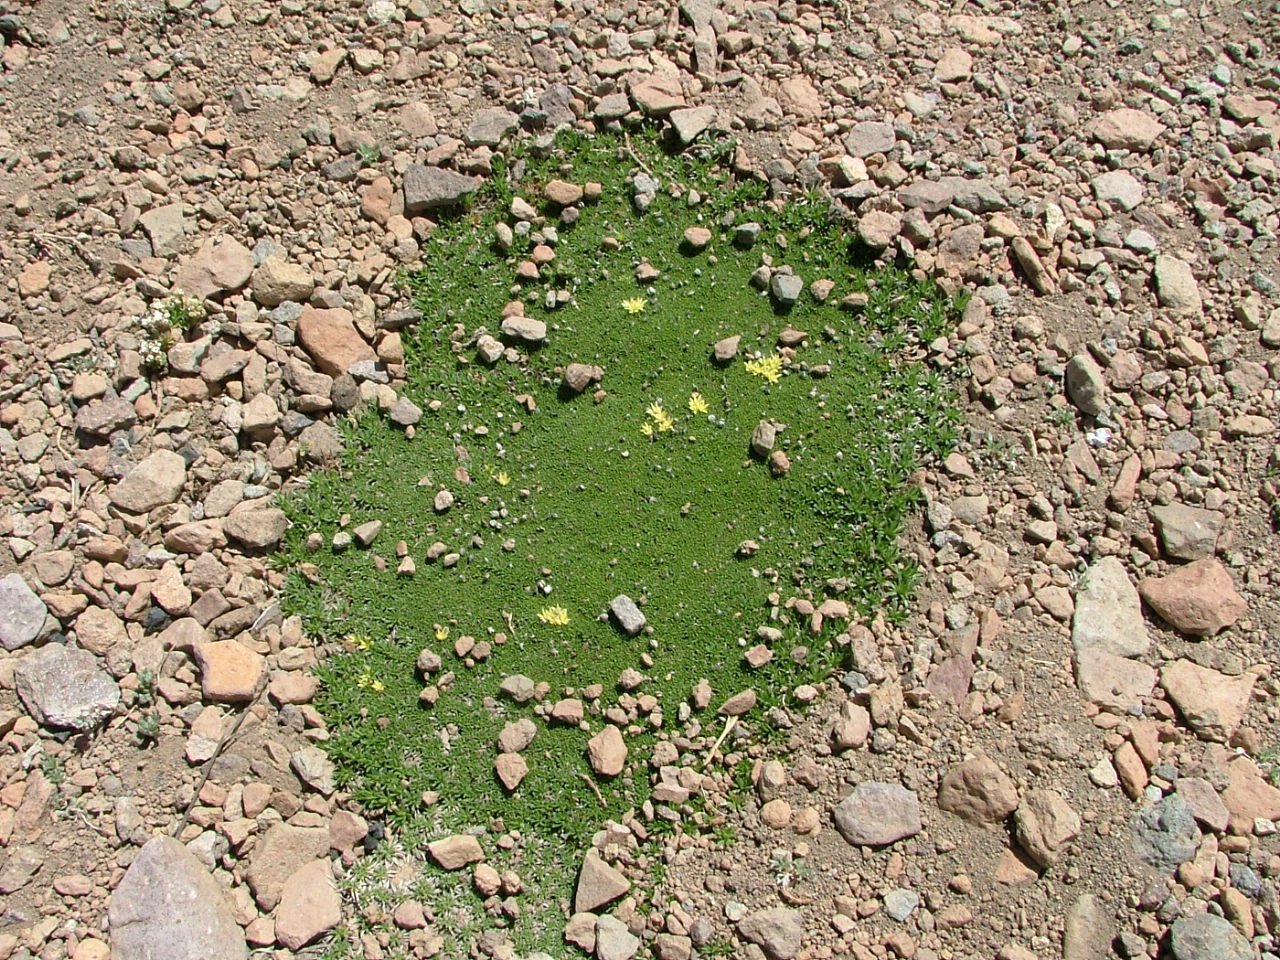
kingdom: Plantae
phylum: Tracheophyta
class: Magnoliopsida
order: Apiales
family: Apiaceae
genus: Azorella
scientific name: Azorella monantha
